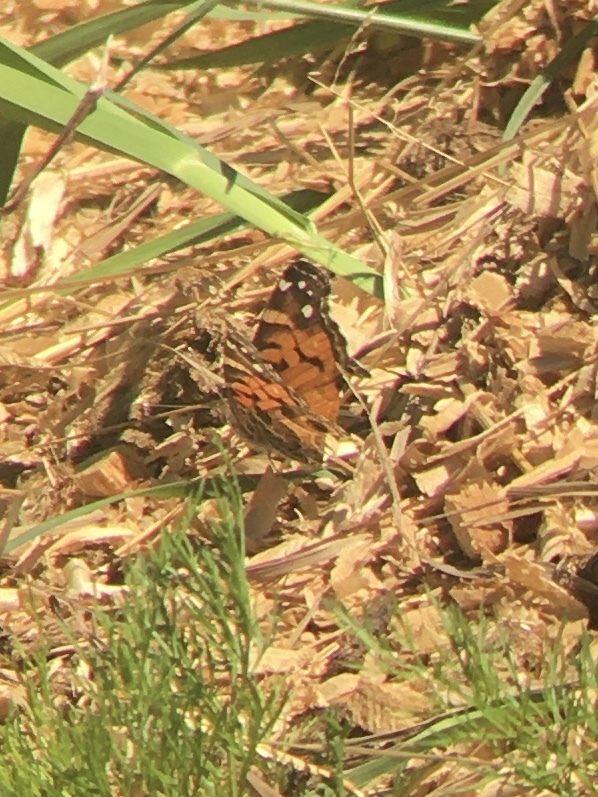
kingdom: Animalia
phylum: Arthropoda
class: Insecta
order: Lepidoptera
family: Nymphalidae
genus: Vanessa
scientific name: Vanessa virginiensis
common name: American lady
